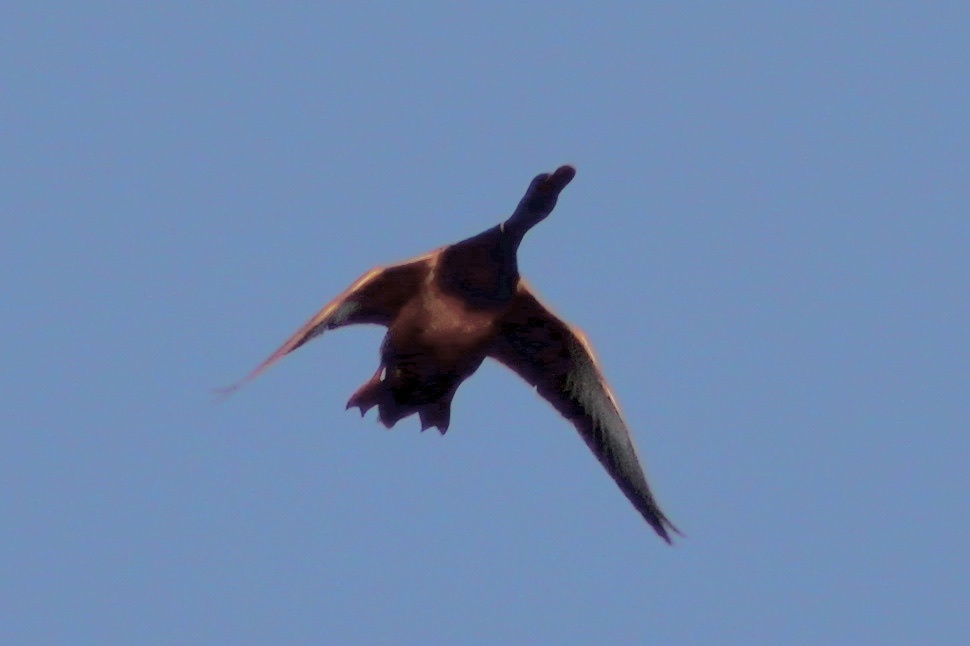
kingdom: Animalia
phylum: Chordata
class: Aves
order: Anseriformes
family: Anatidae
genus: Anas
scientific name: Anas platyrhynchos
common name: Mallard
